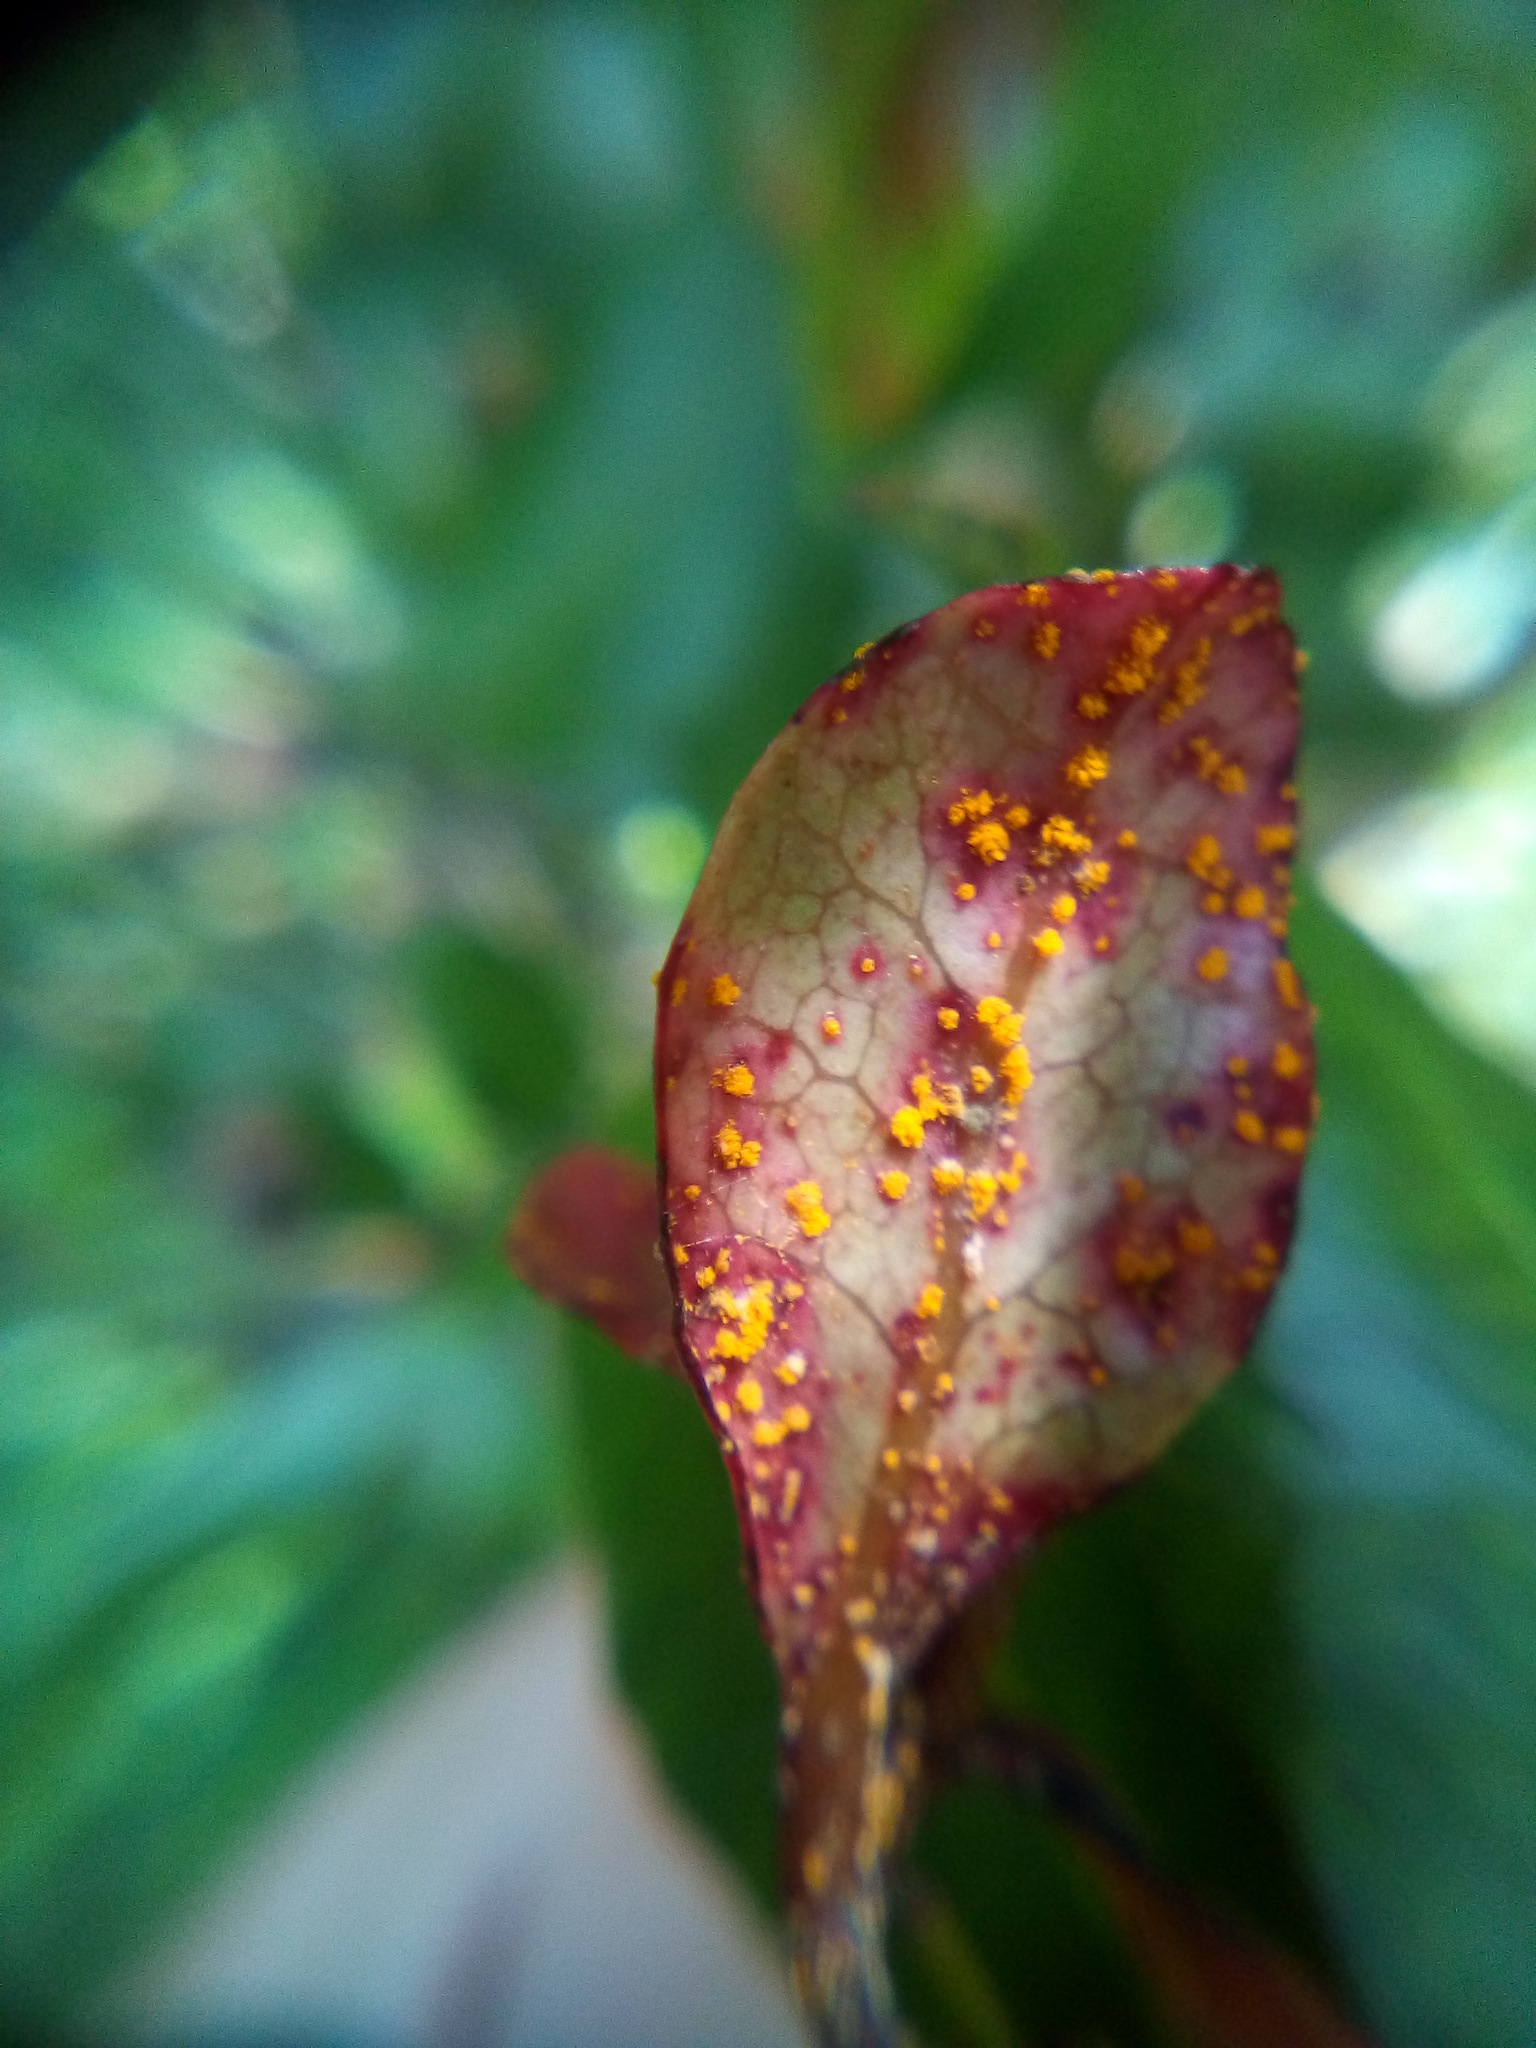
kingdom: Fungi
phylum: Basidiomycota
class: Pucciniomycetes
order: Pucciniales
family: Sphaerophragmiaceae
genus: Austropuccinia
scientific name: Austropuccinia psidii
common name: Myrtle rust
